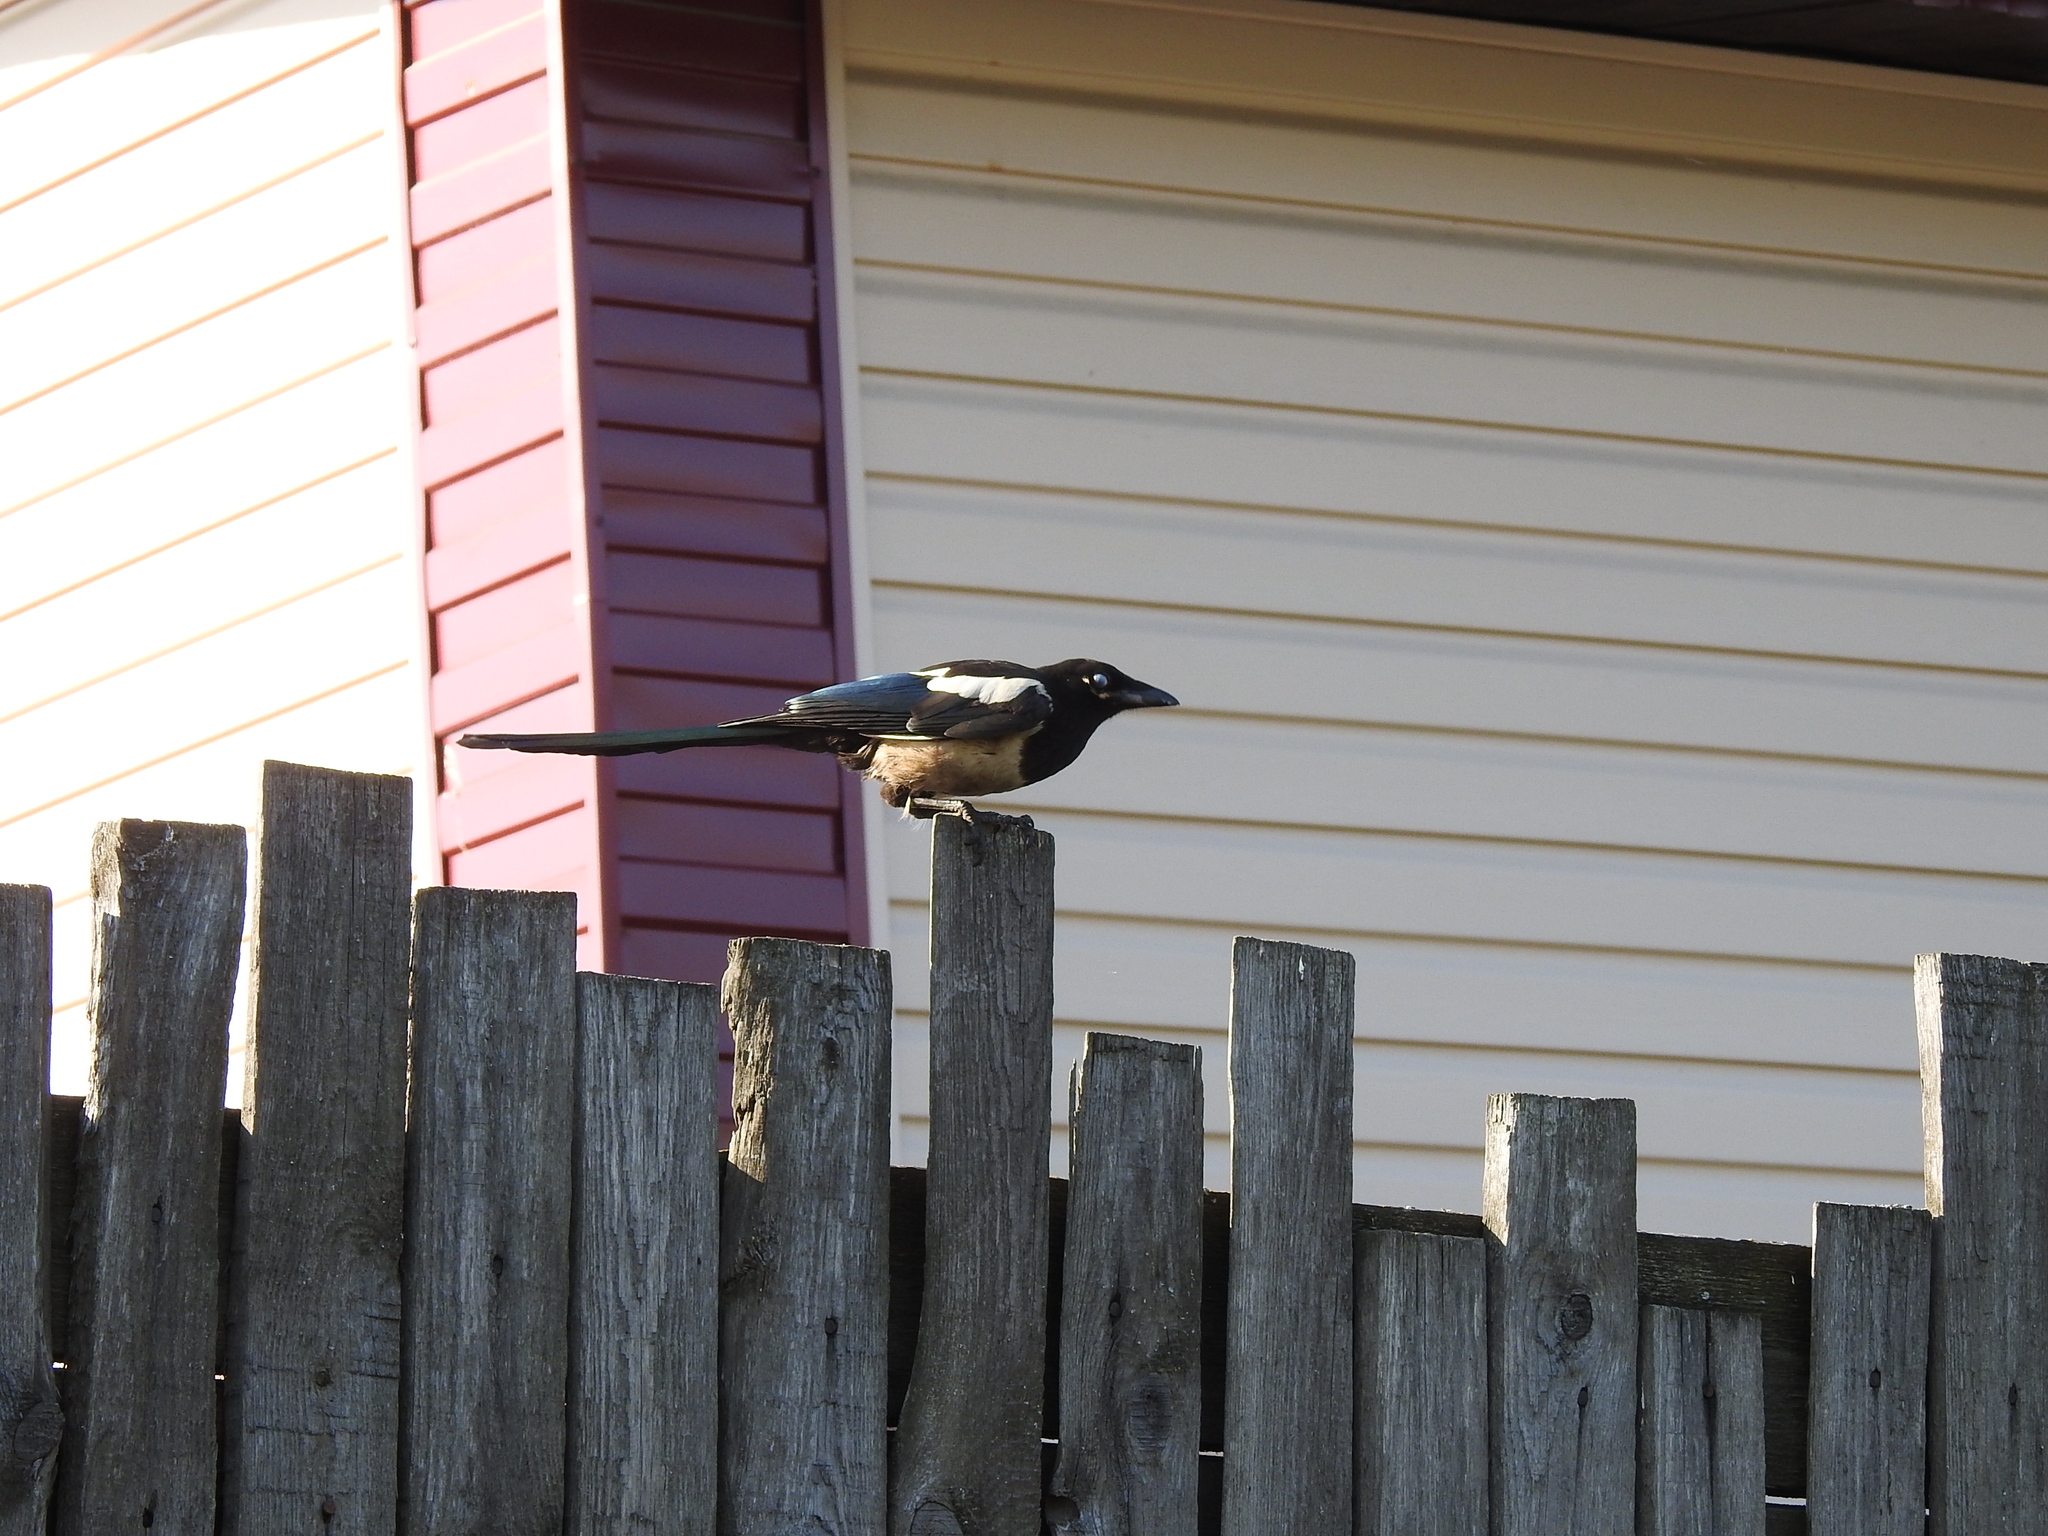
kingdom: Animalia
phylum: Chordata
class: Aves
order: Passeriformes
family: Corvidae
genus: Pica
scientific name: Pica pica
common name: Eurasian magpie
